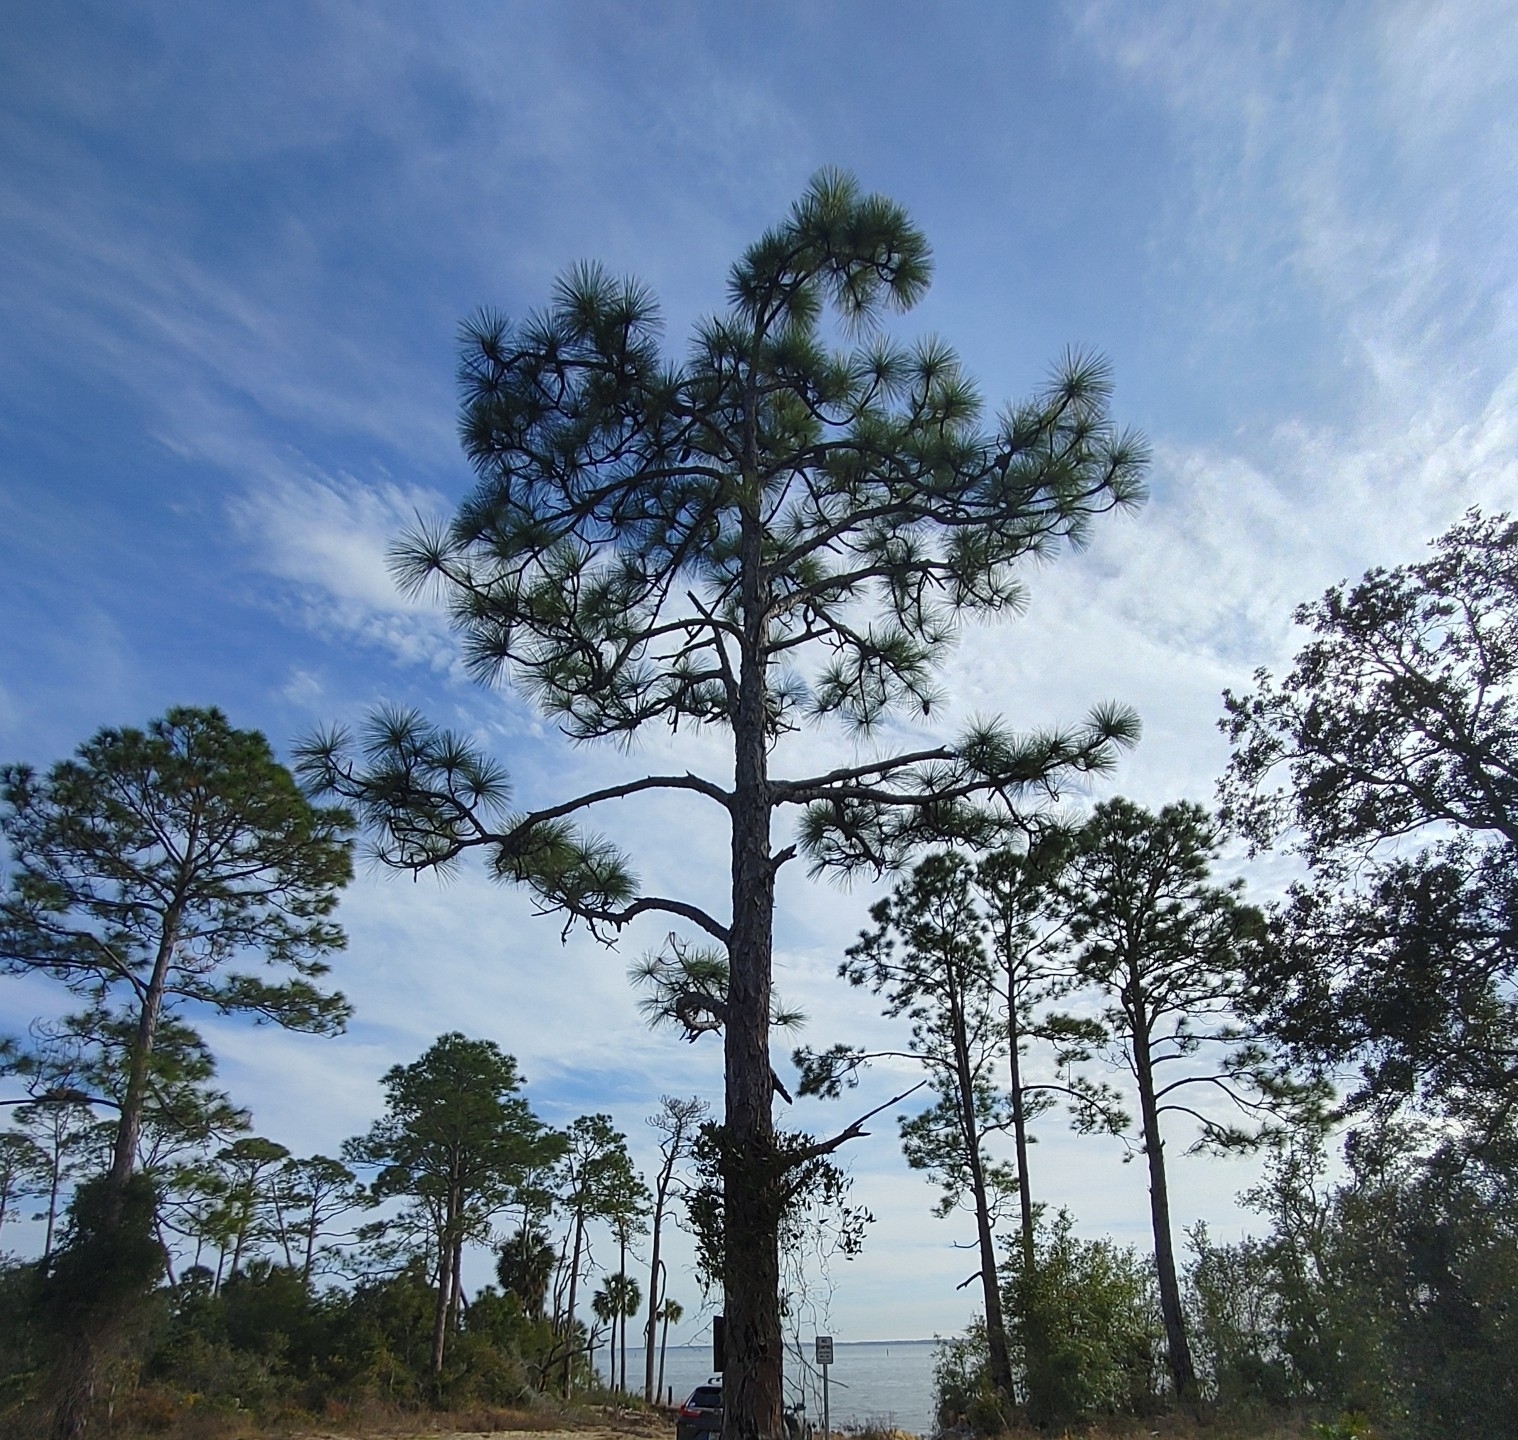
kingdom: Plantae
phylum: Tracheophyta
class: Pinopsida
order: Pinales
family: Pinaceae
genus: Pinus
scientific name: Pinus palustris
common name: Longleaf pine
